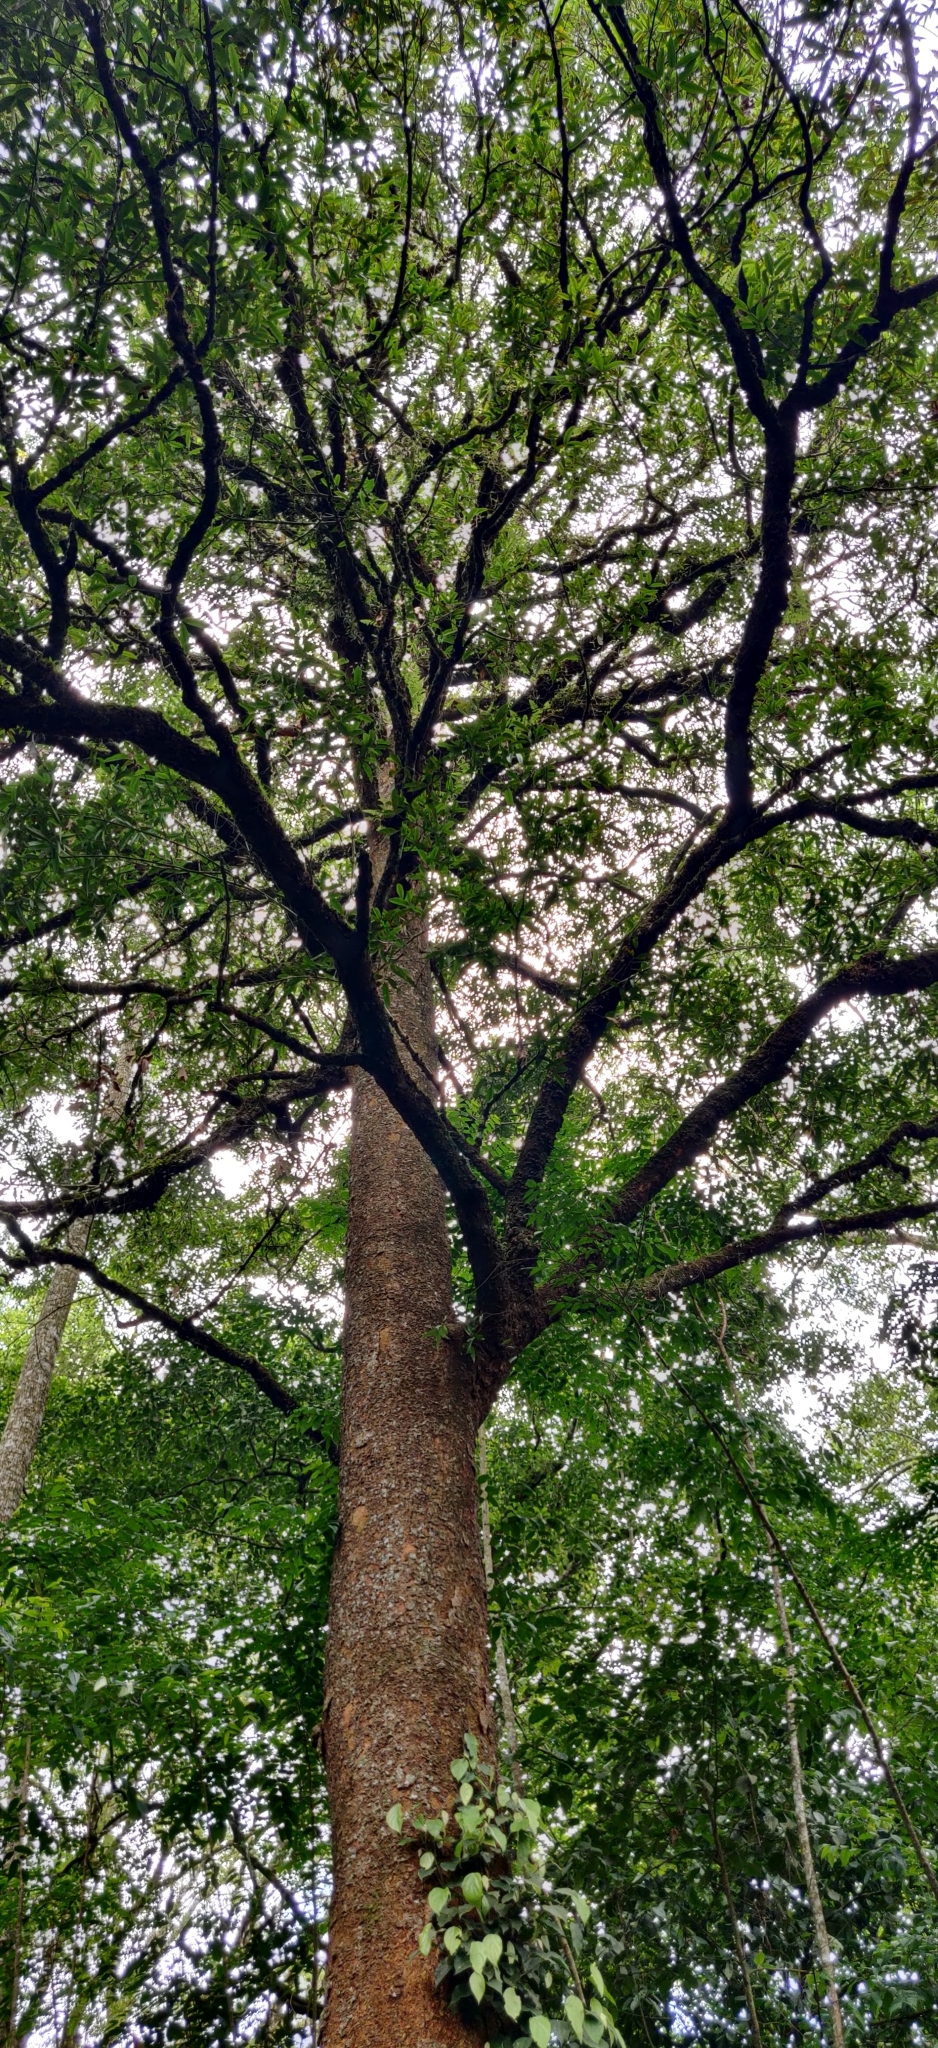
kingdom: Plantae
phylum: Tracheophyta
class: Magnoliopsida
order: Malpighiales
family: Calophyllaceae
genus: Poeciloneuron
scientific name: Poeciloneuron indicum
